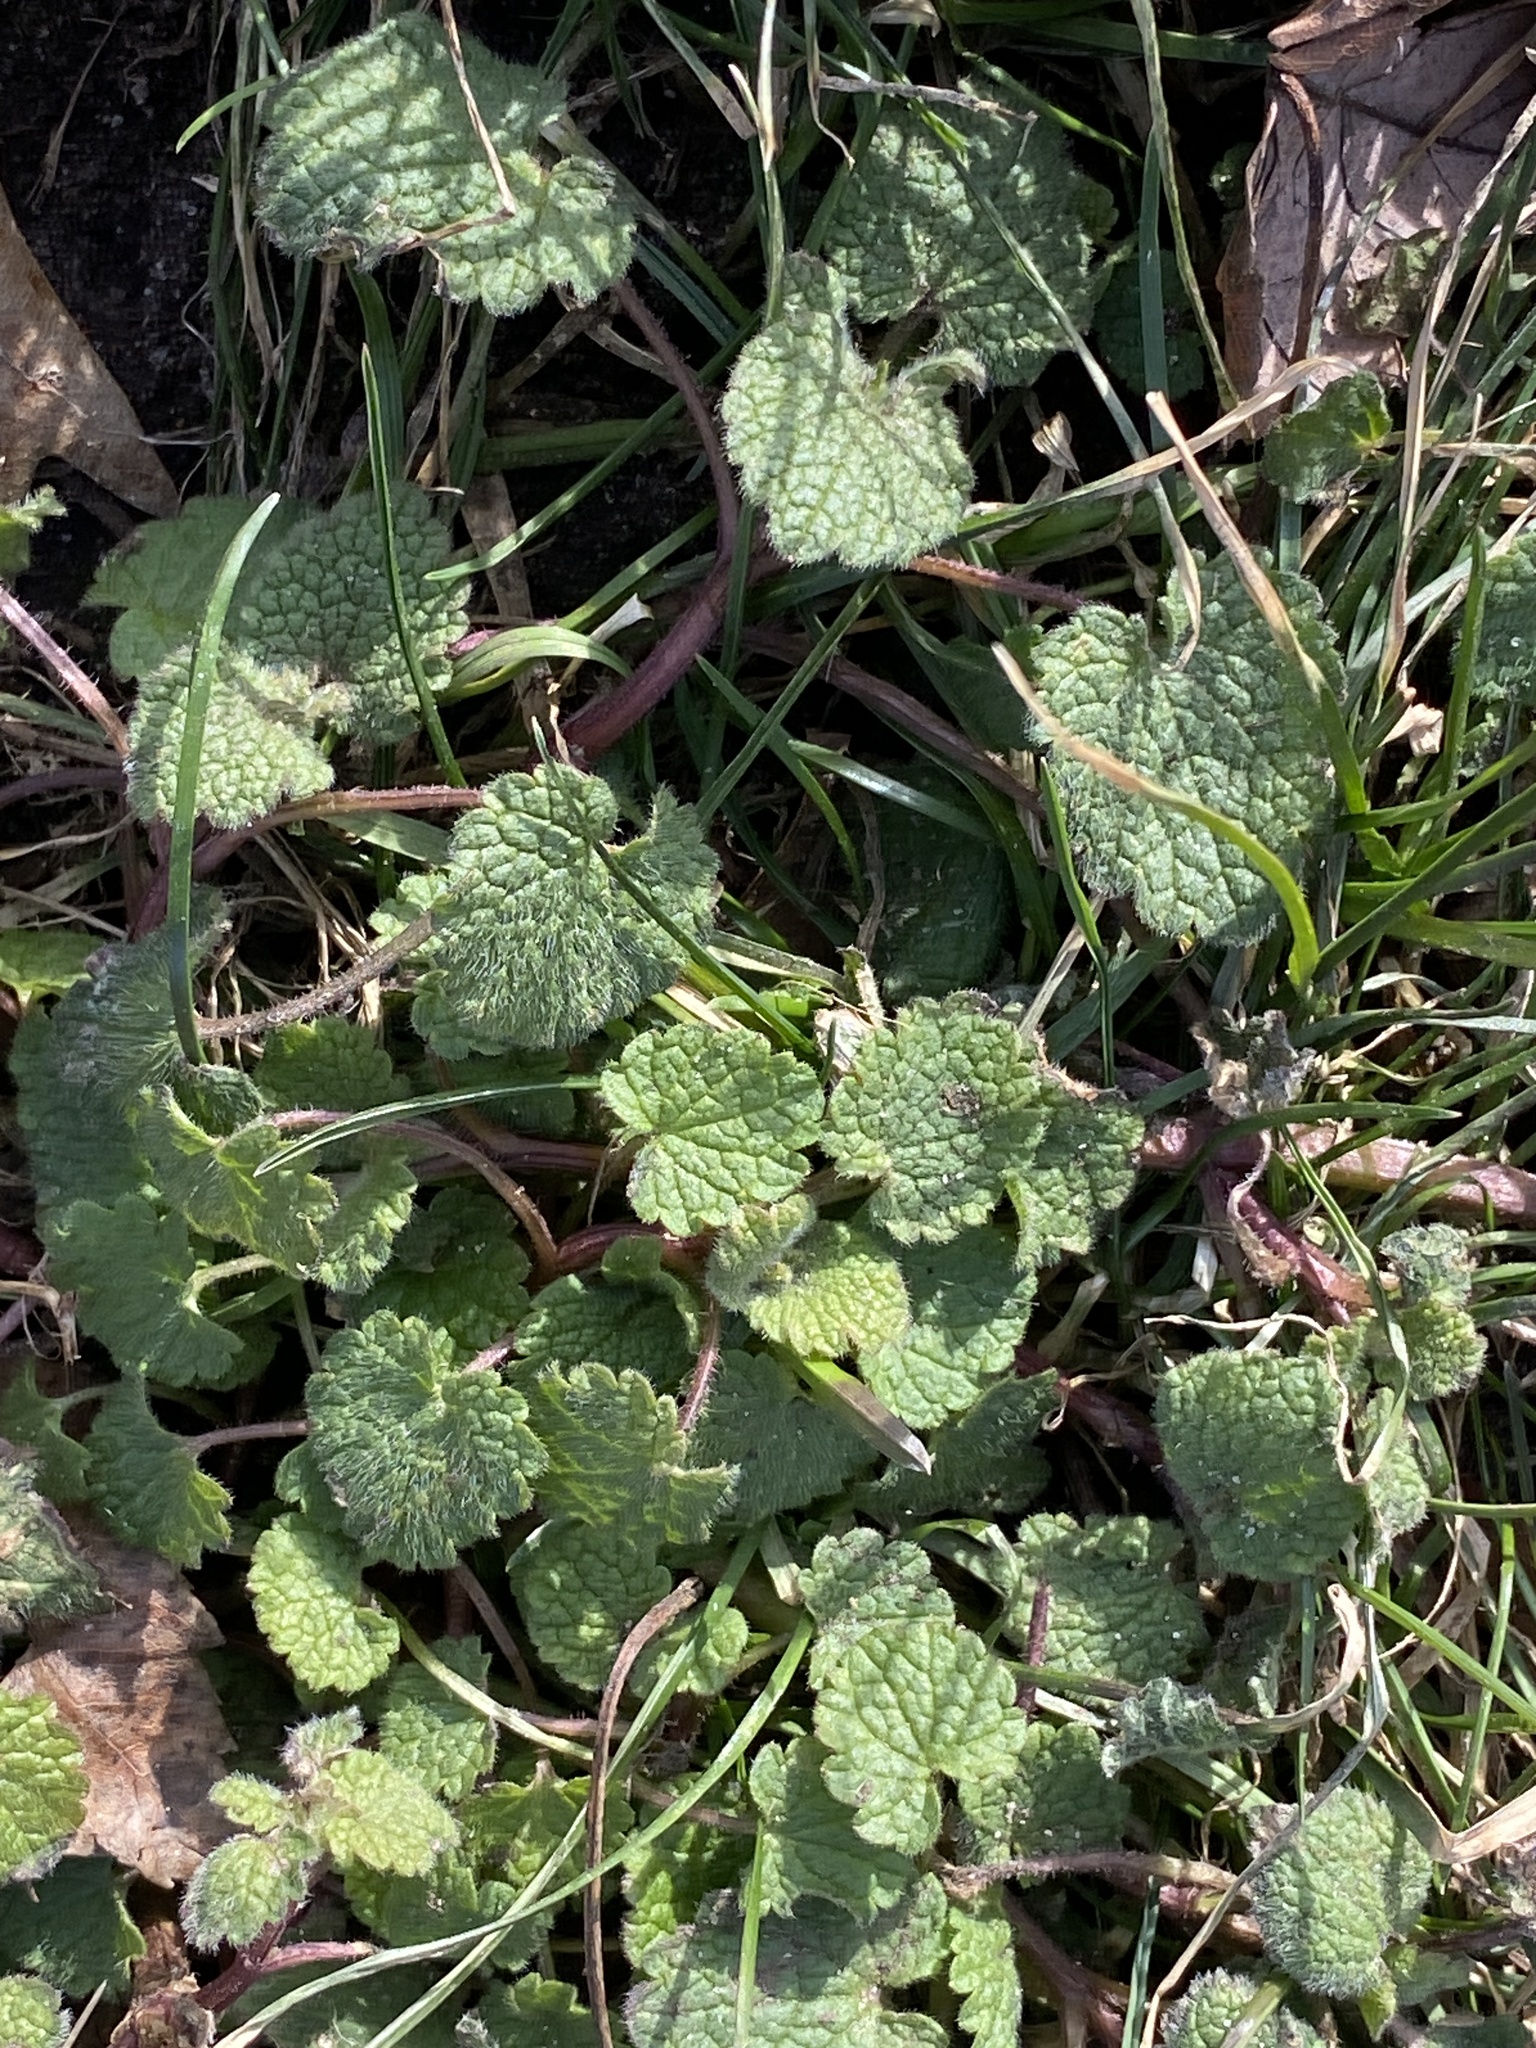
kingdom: Plantae
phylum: Tracheophyta
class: Magnoliopsida
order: Lamiales
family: Lamiaceae
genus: Lamium
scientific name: Lamium purpureum
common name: Red dead-nettle
